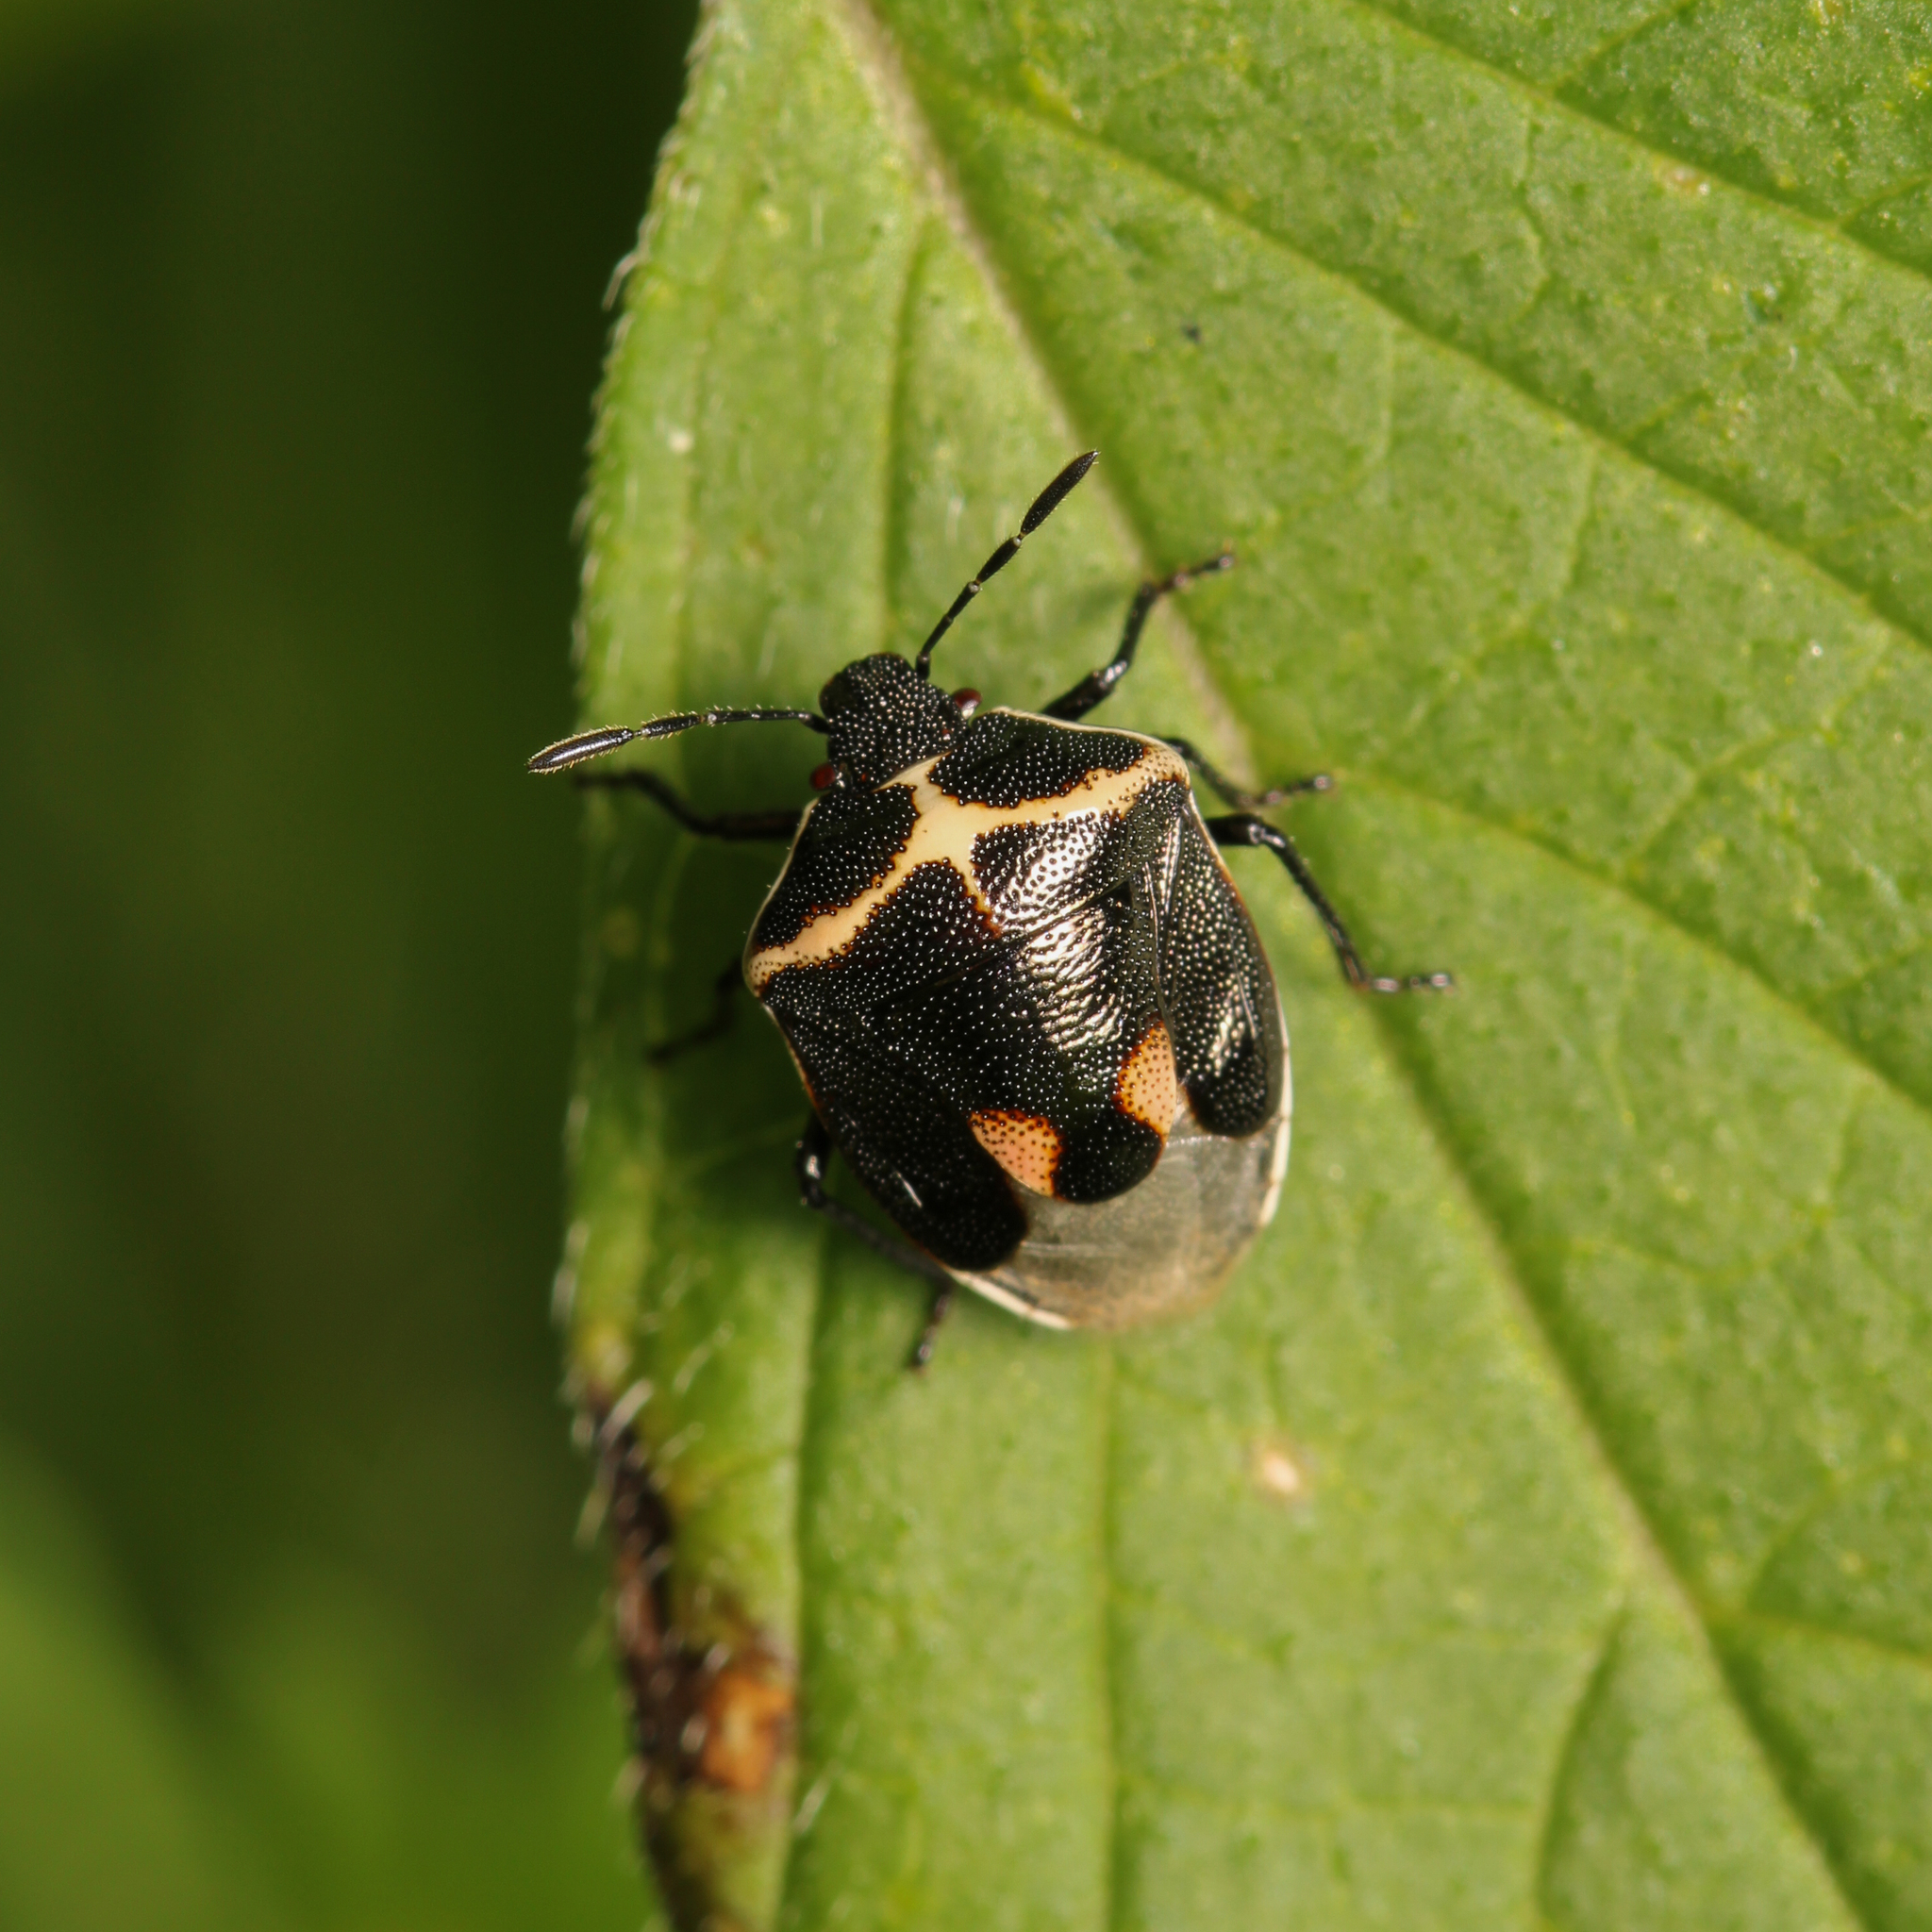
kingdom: Animalia
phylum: Arthropoda
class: Insecta
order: Hemiptera
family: Pentatomidae
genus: Cosmopepla
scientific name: Cosmopepla lintneriana
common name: Twice-stabbed stink bug
